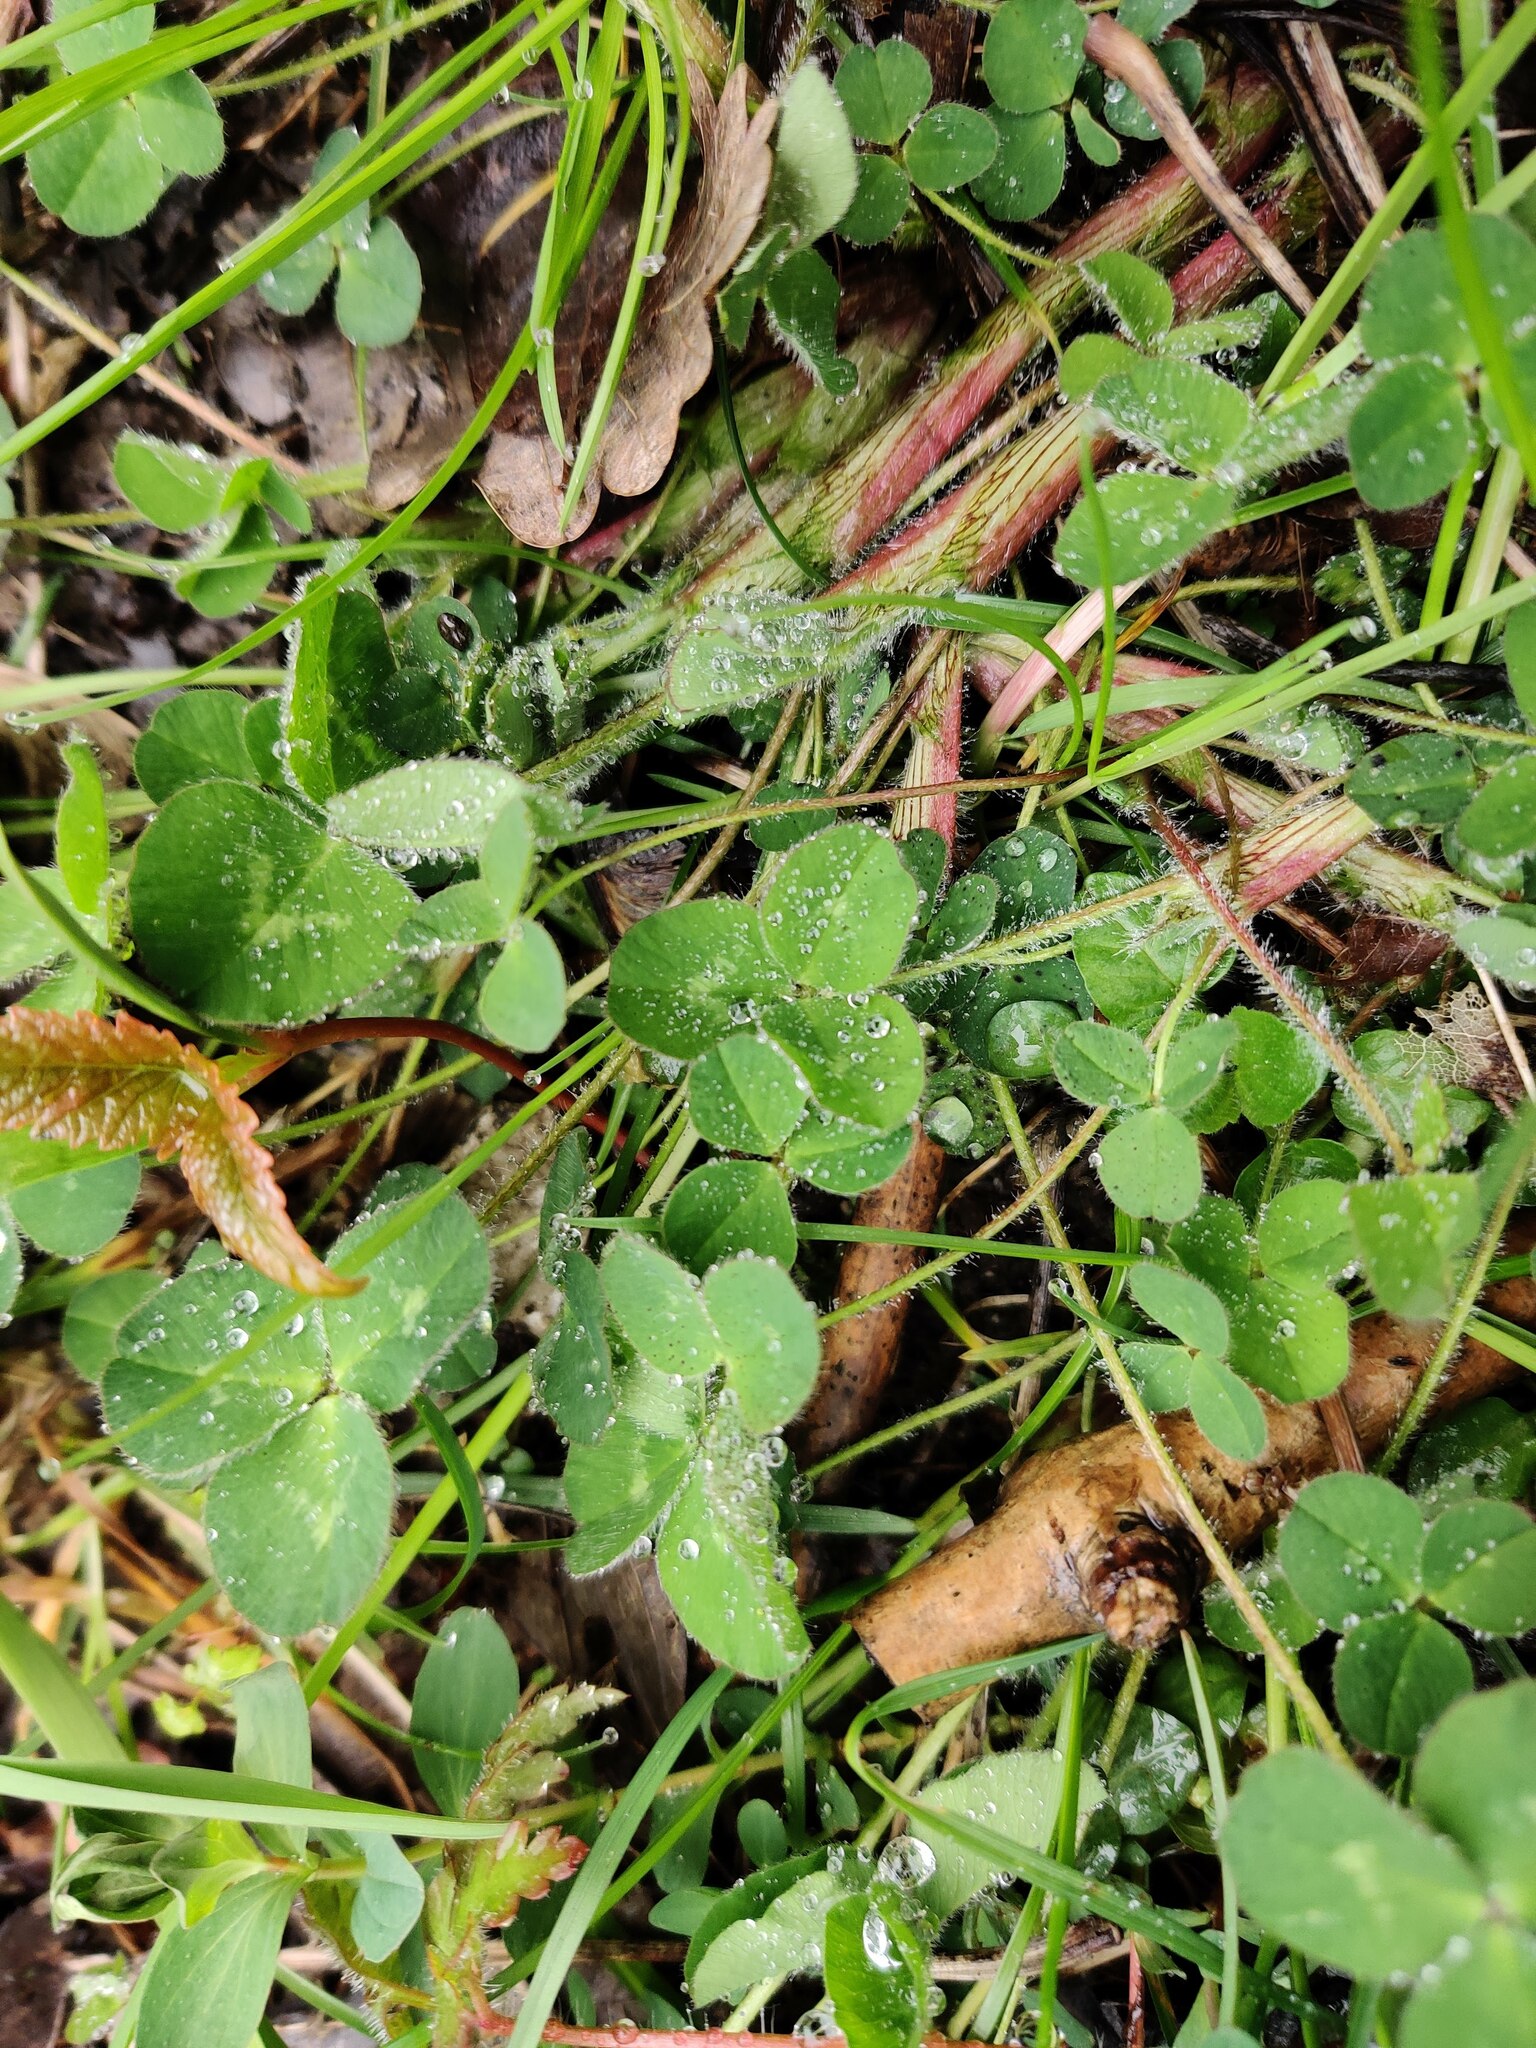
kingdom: Plantae
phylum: Tracheophyta
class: Magnoliopsida
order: Fabales
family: Fabaceae
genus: Trifolium
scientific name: Trifolium repens
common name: White clover
